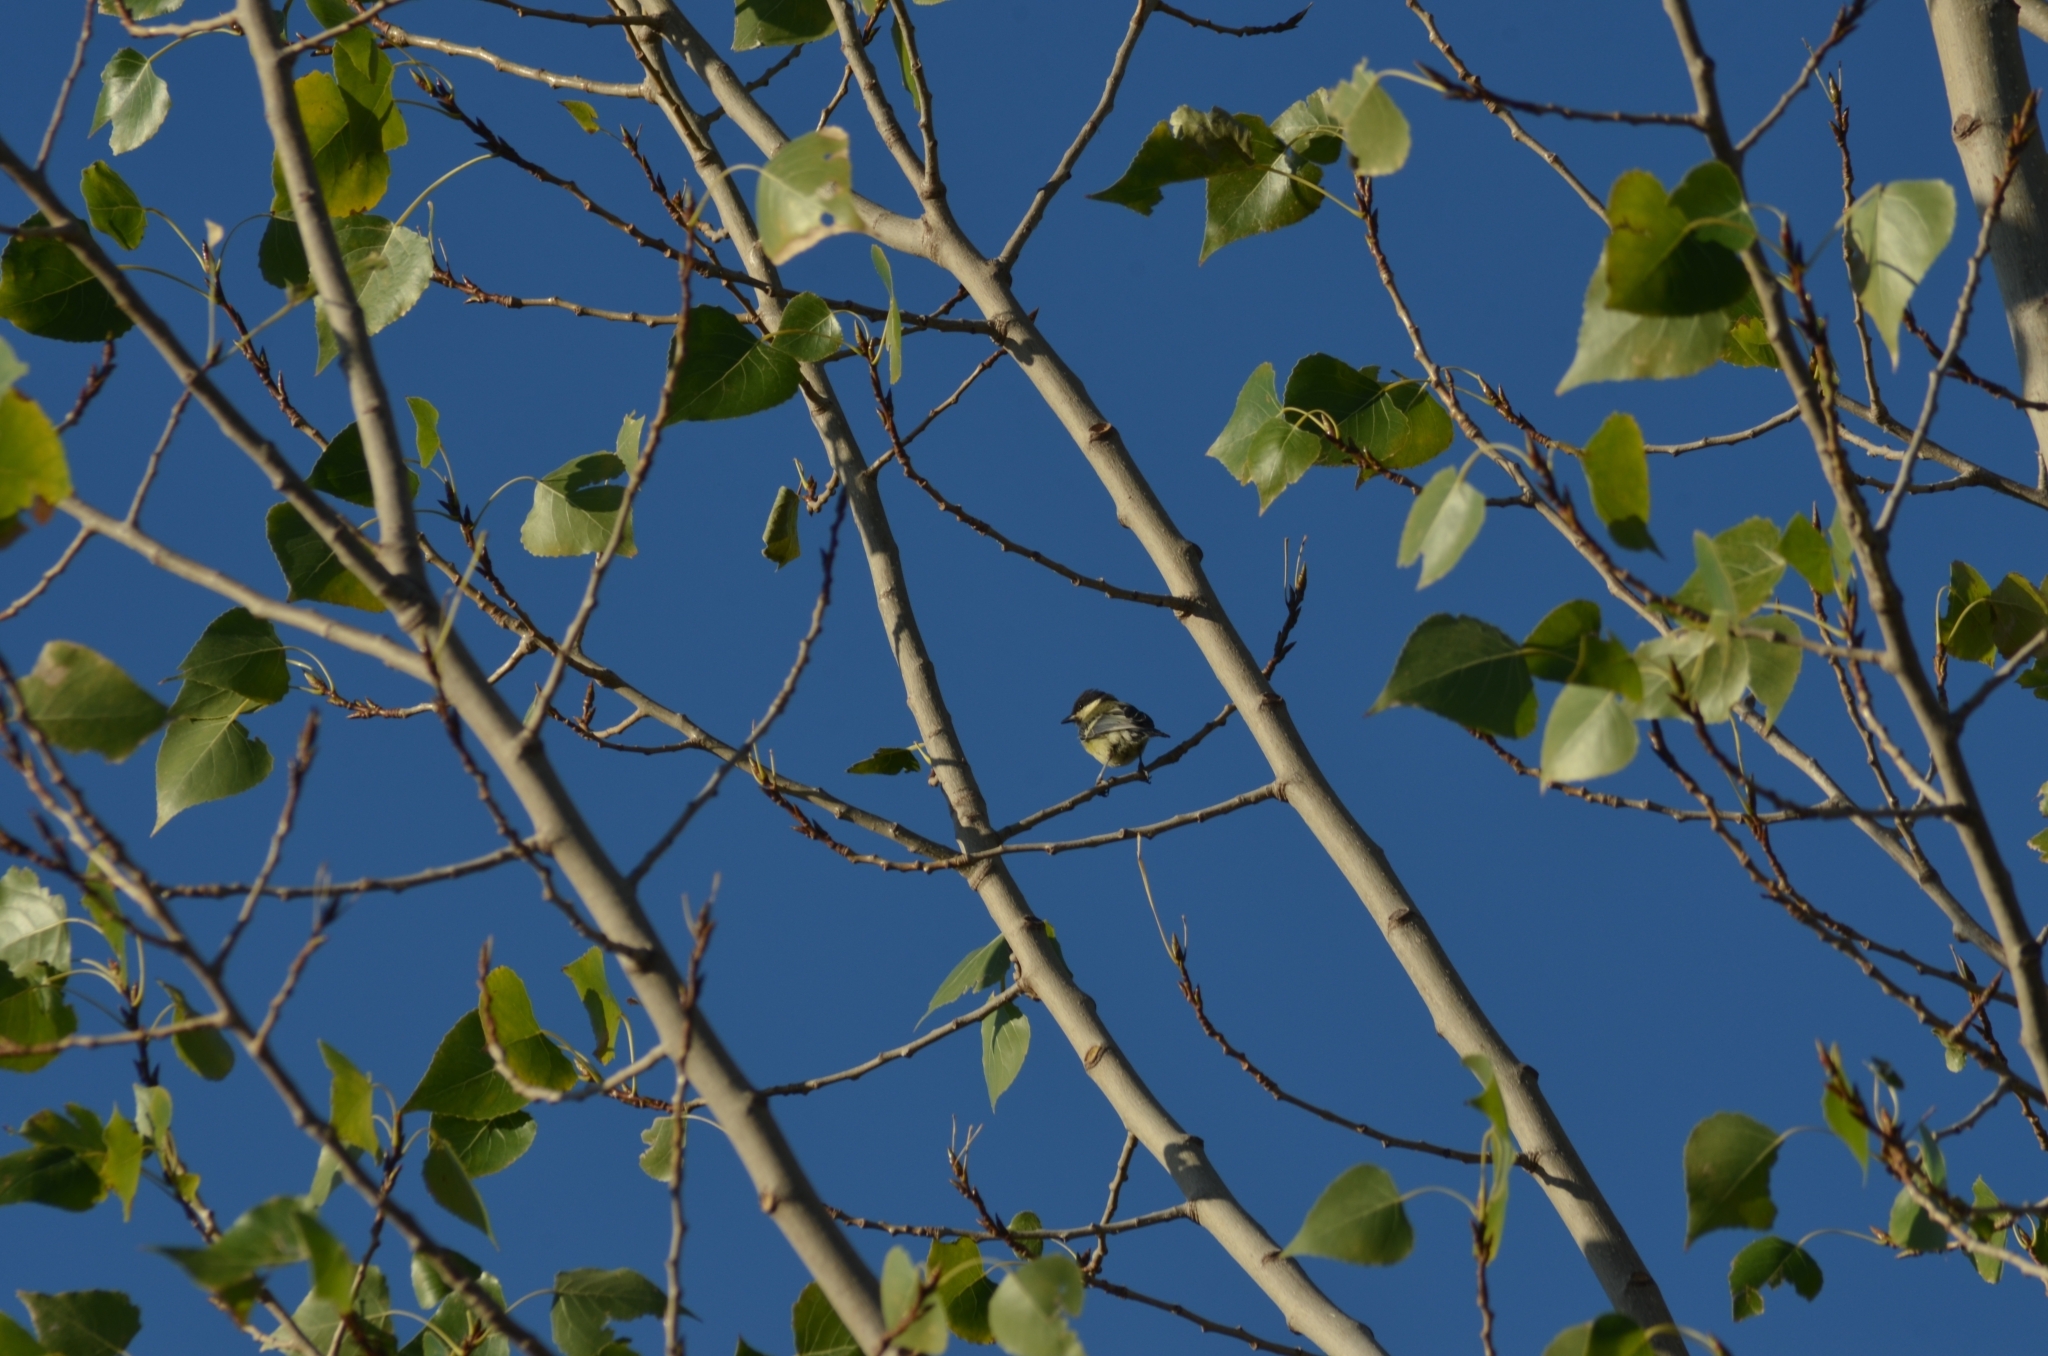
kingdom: Animalia
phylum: Chordata
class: Aves
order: Passeriformes
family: Paridae
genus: Parus
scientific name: Parus major
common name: Great tit
